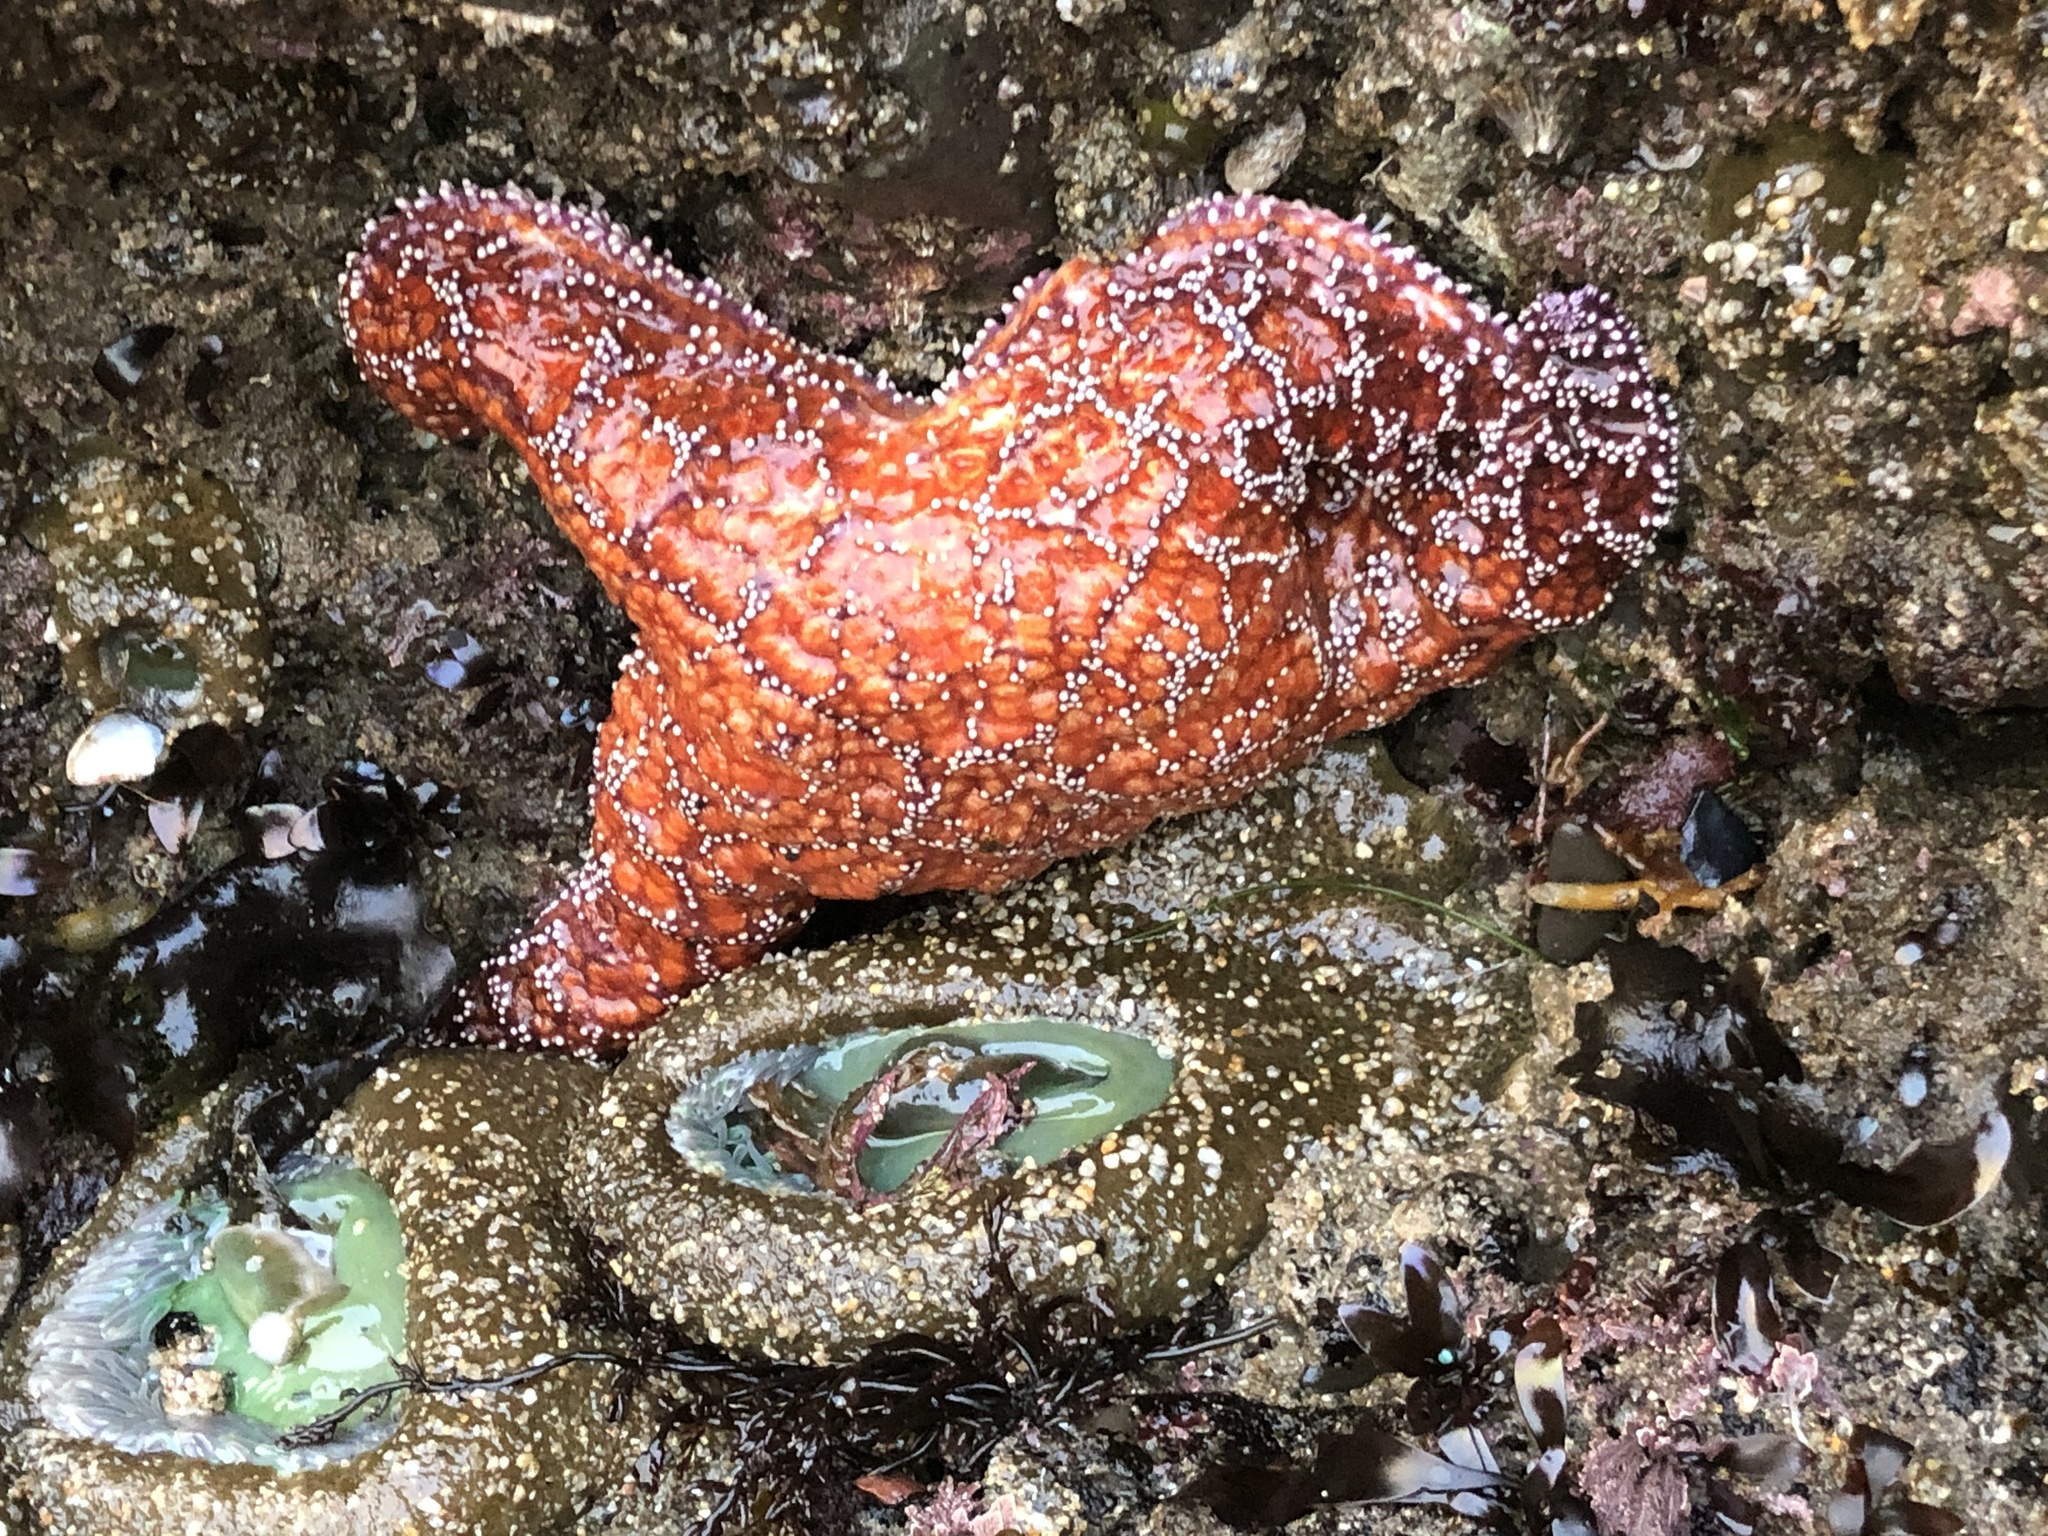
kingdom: Animalia
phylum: Echinodermata
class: Asteroidea
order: Forcipulatida
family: Asteriidae
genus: Pisaster
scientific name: Pisaster ochraceus
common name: Ochre stars
